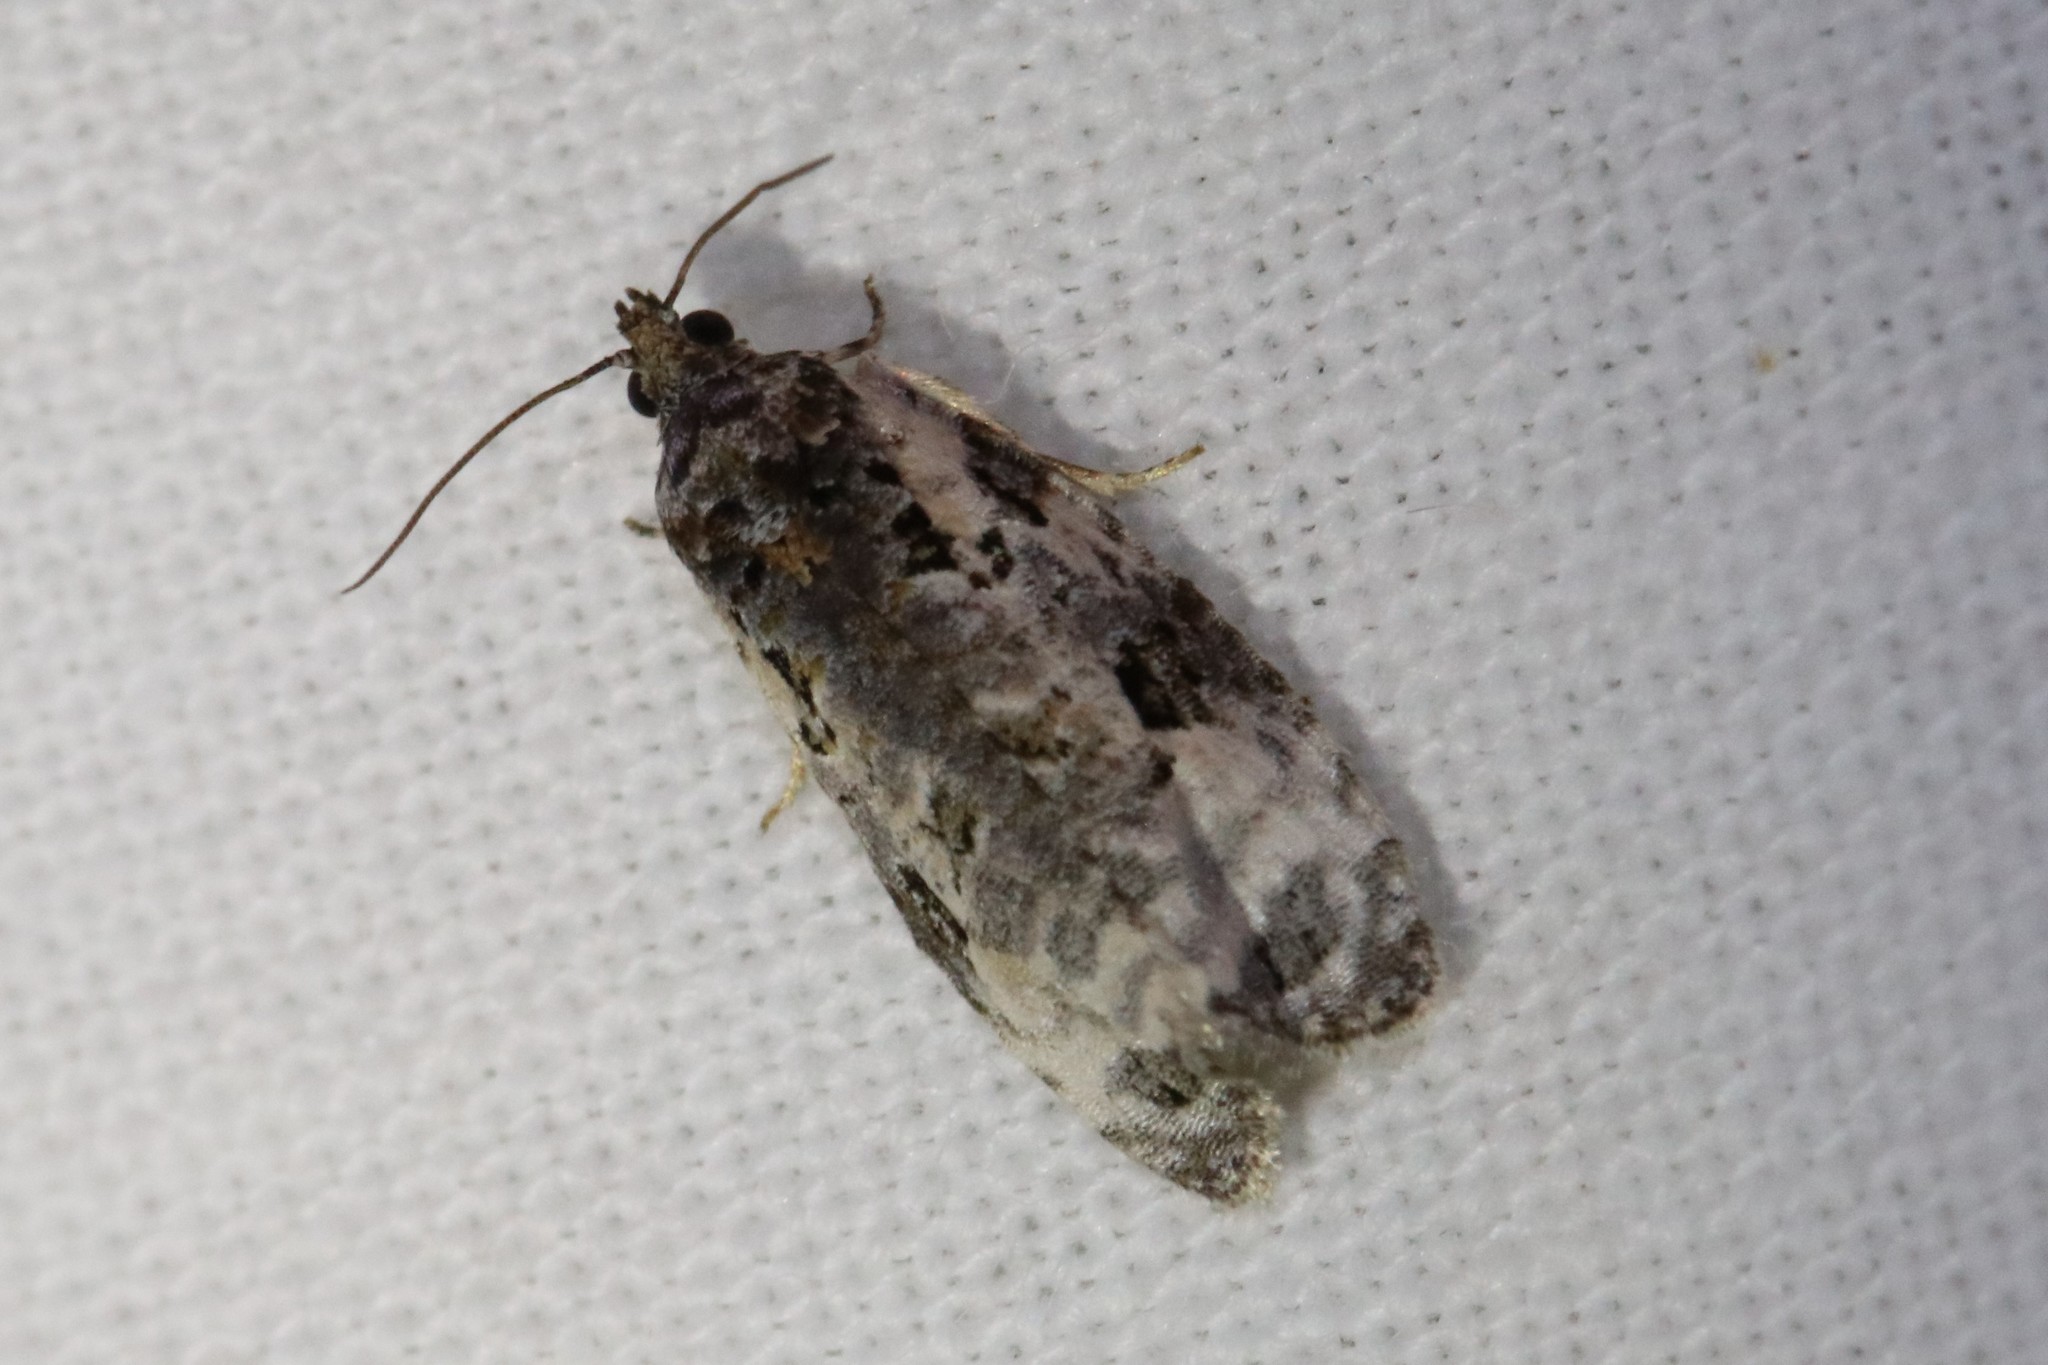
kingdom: Animalia
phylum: Arthropoda
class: Insecta
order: Lepidoptera
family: Tortricidae
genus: Apotomis
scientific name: Apotomis albeolana
